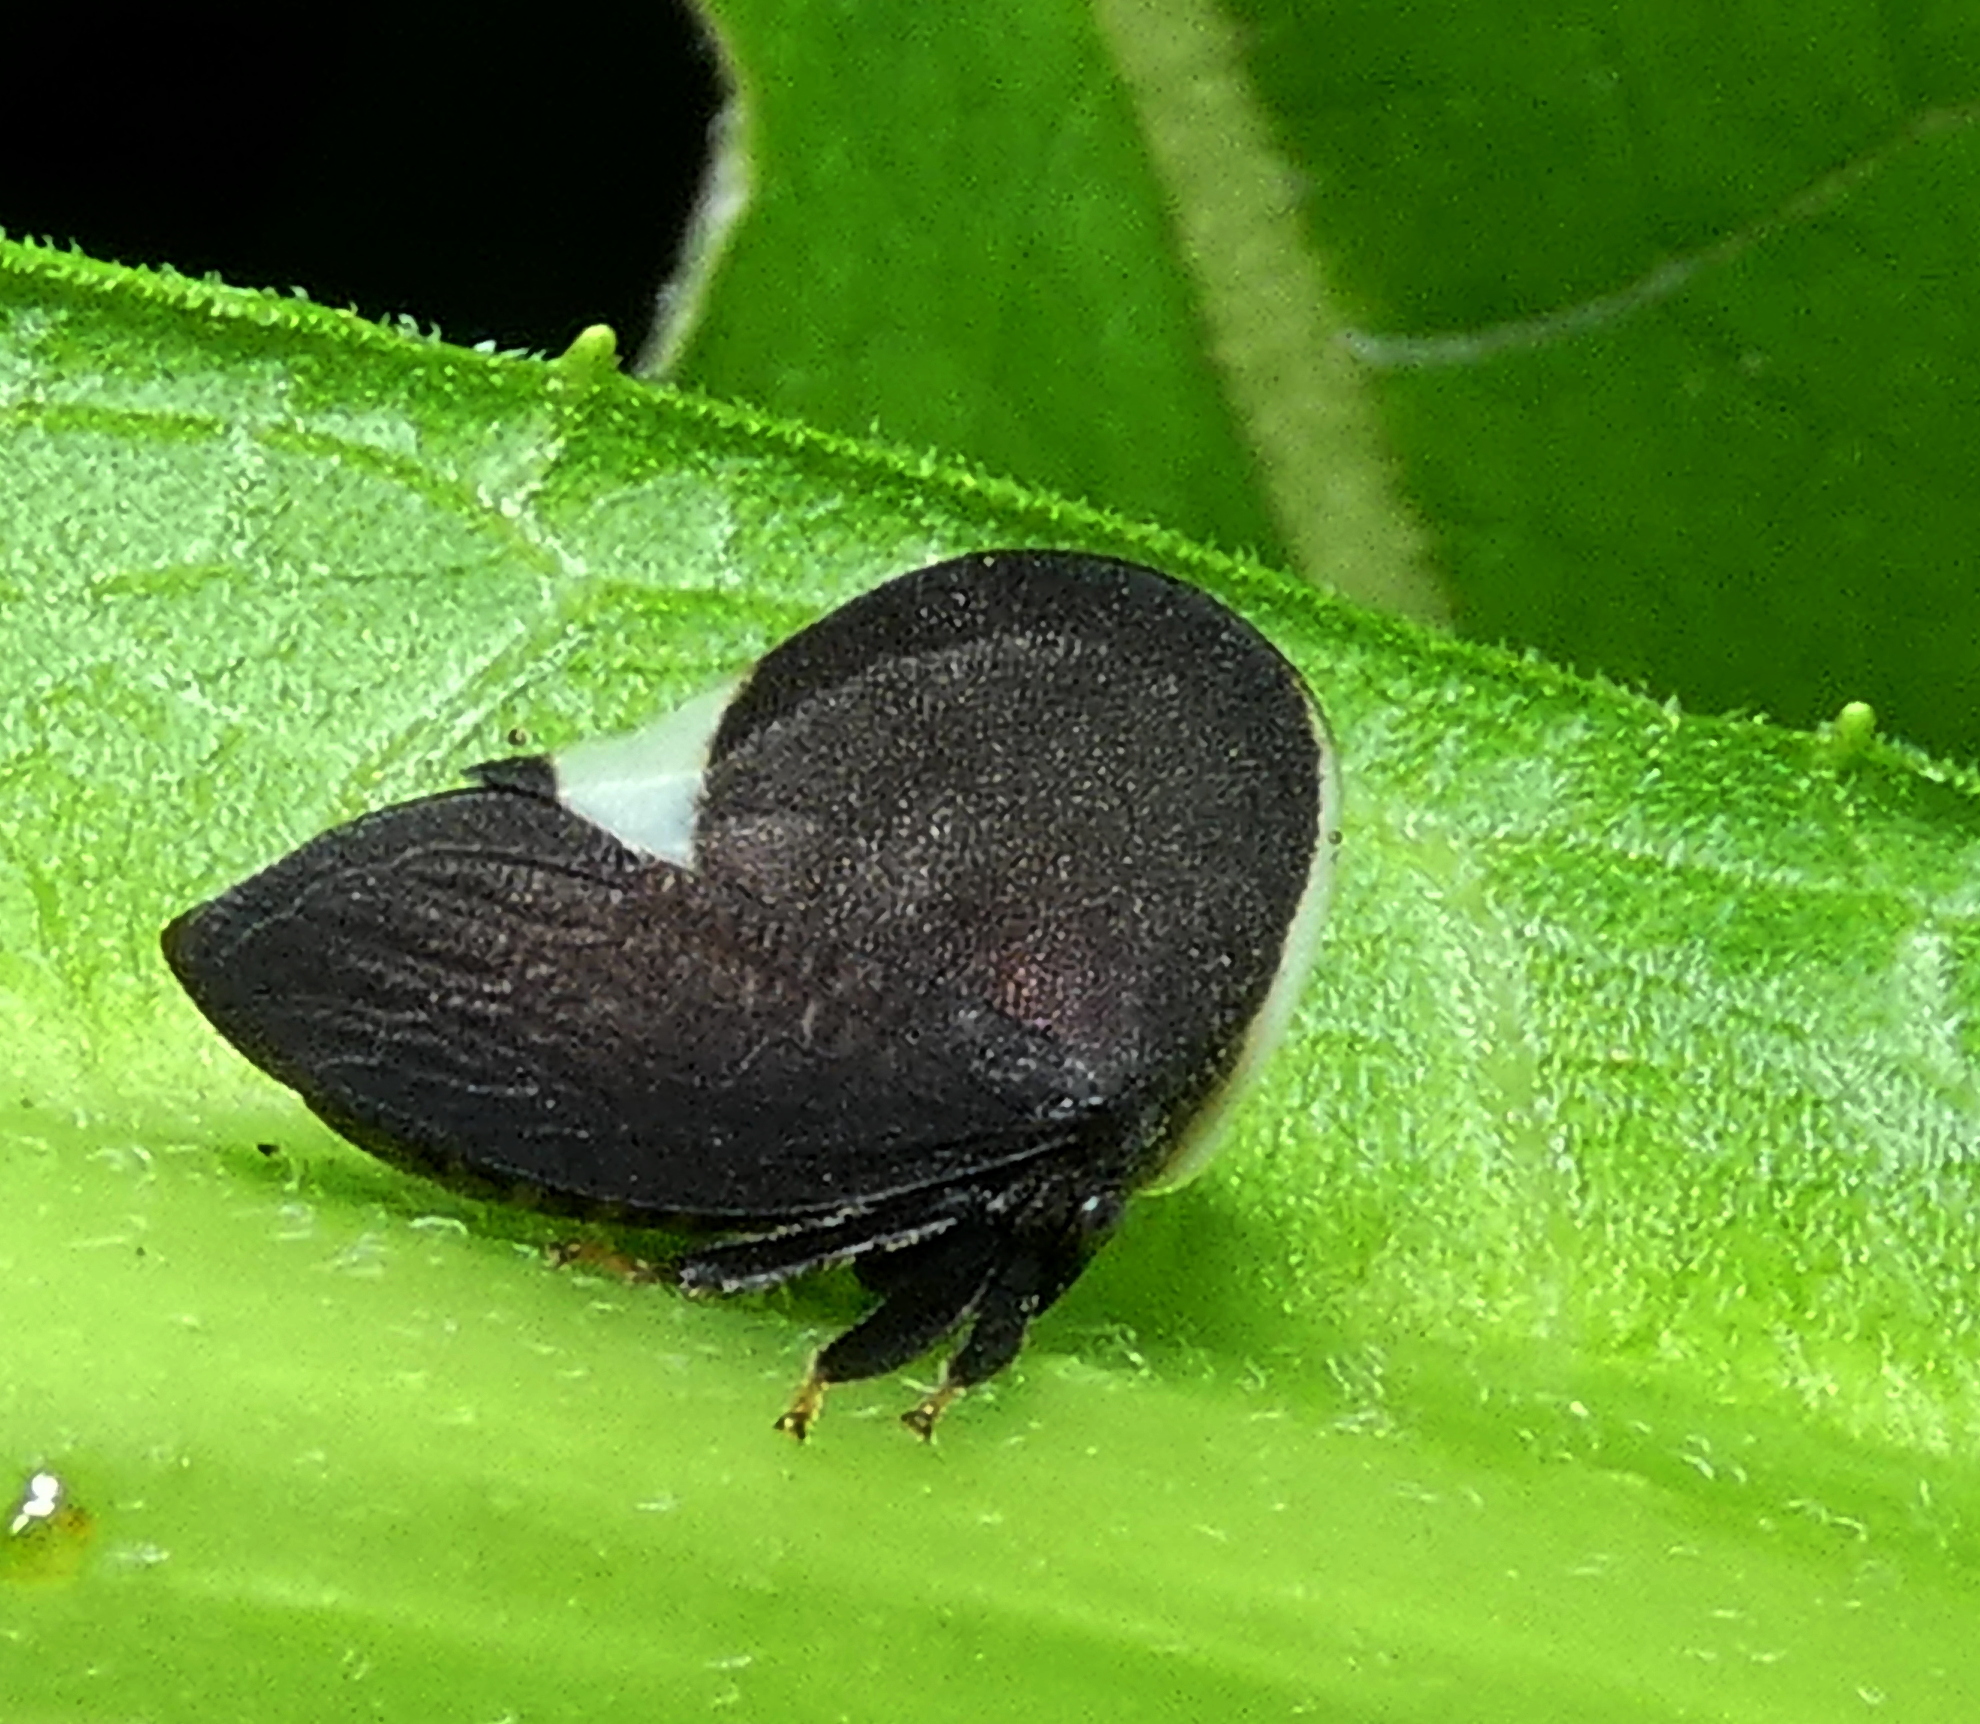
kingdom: Animalia
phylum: Arthropoda
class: Insecta
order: Hemiptera
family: Membracidae
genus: Membracis
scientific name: Membracis dorsata
